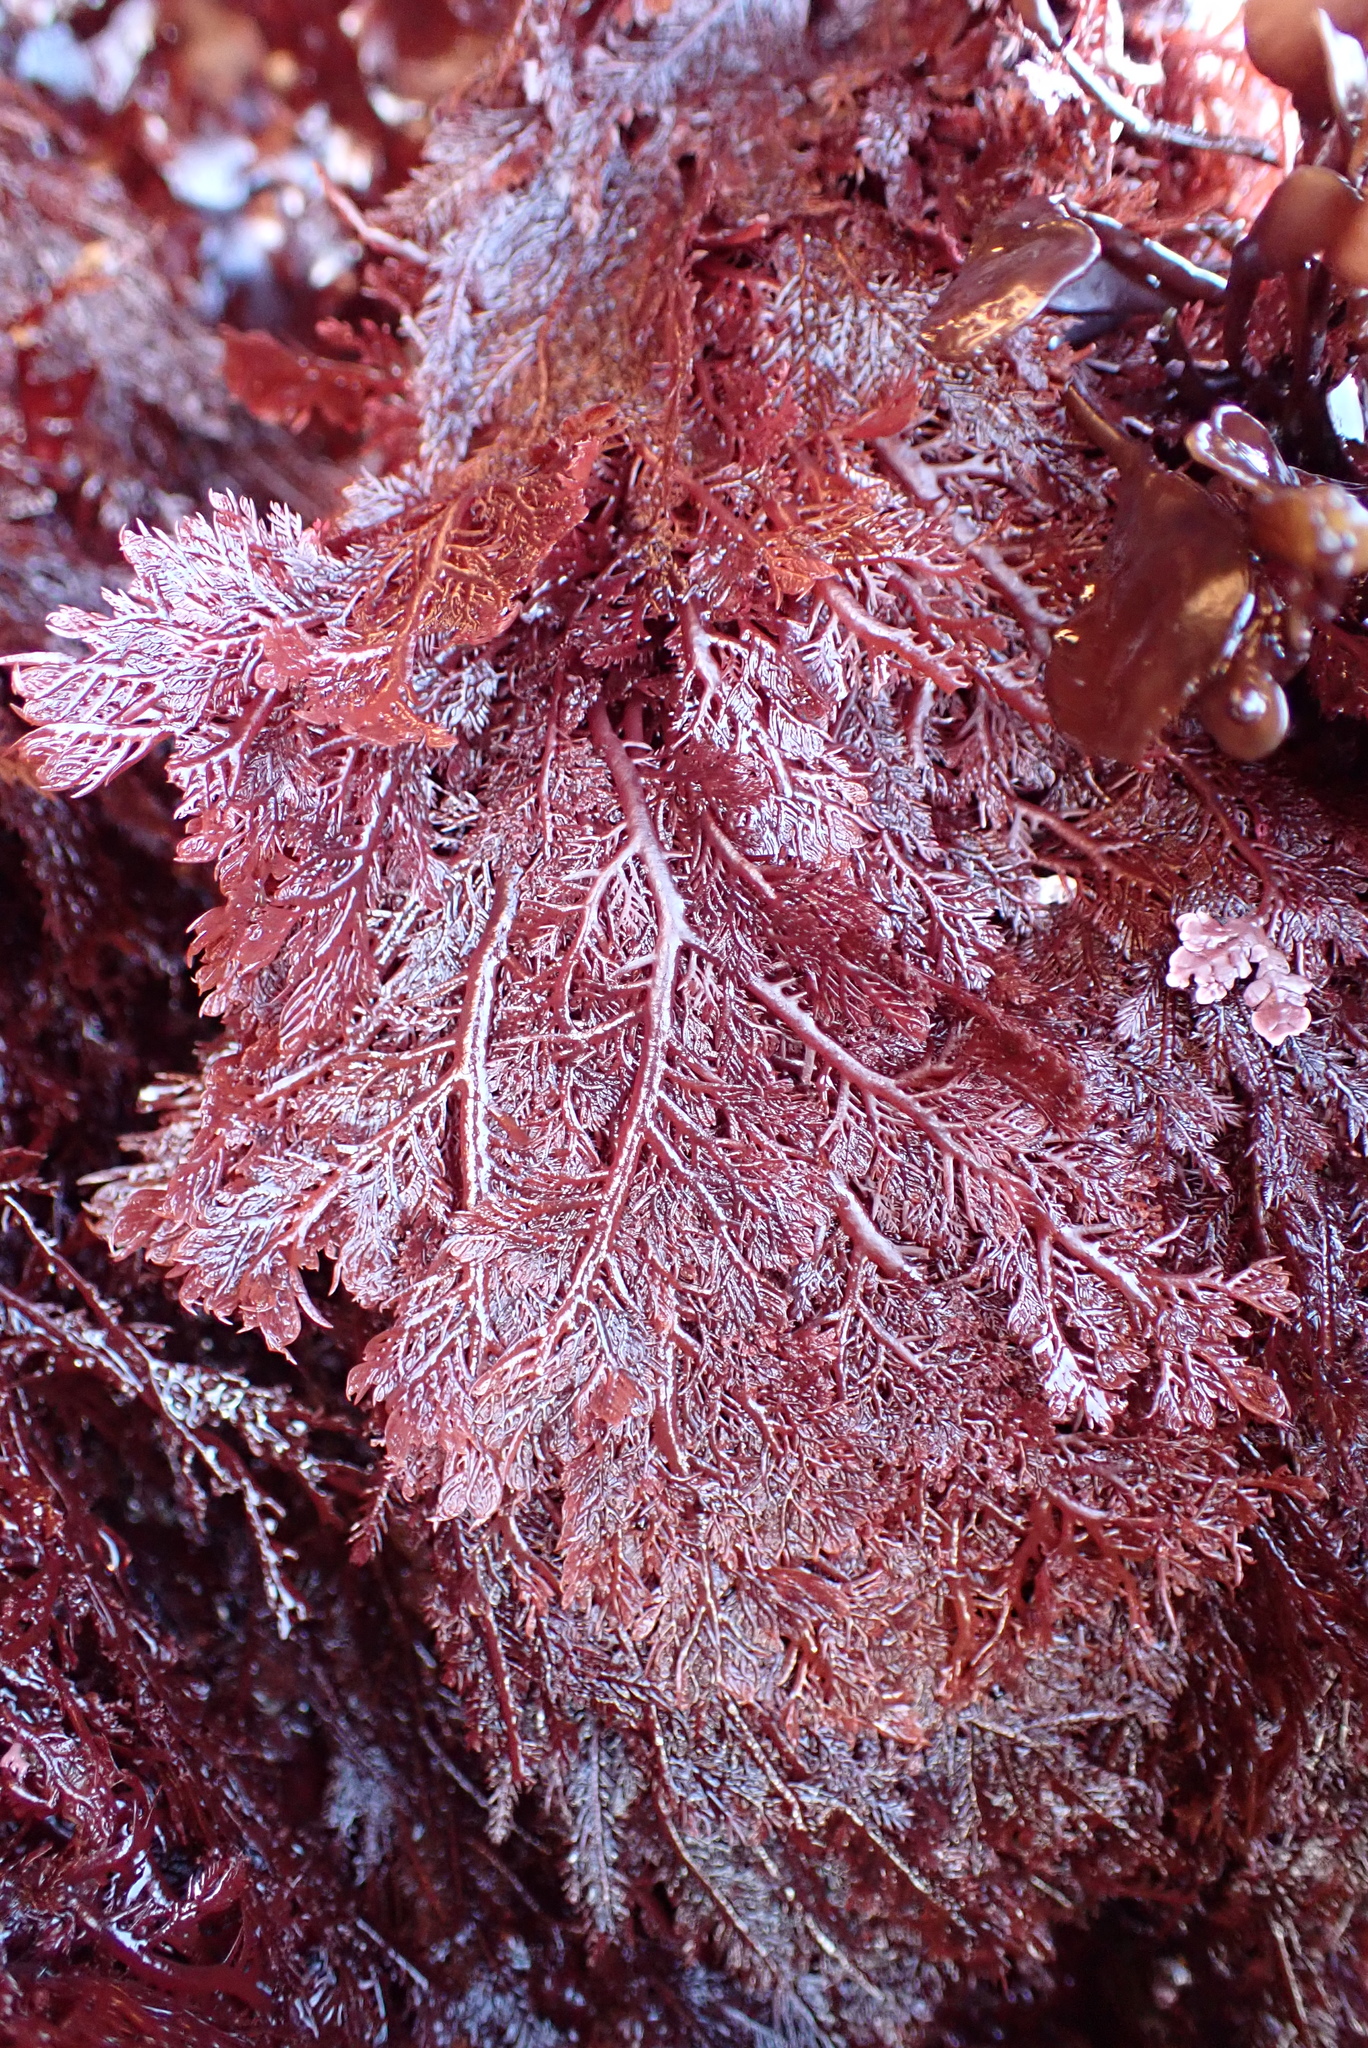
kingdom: Plantae
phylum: Rhodophyta
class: Florideophyceae
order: Plocamiales
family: Plocamiaceae
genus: Plocamium
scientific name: Plocamium cartilagineum
